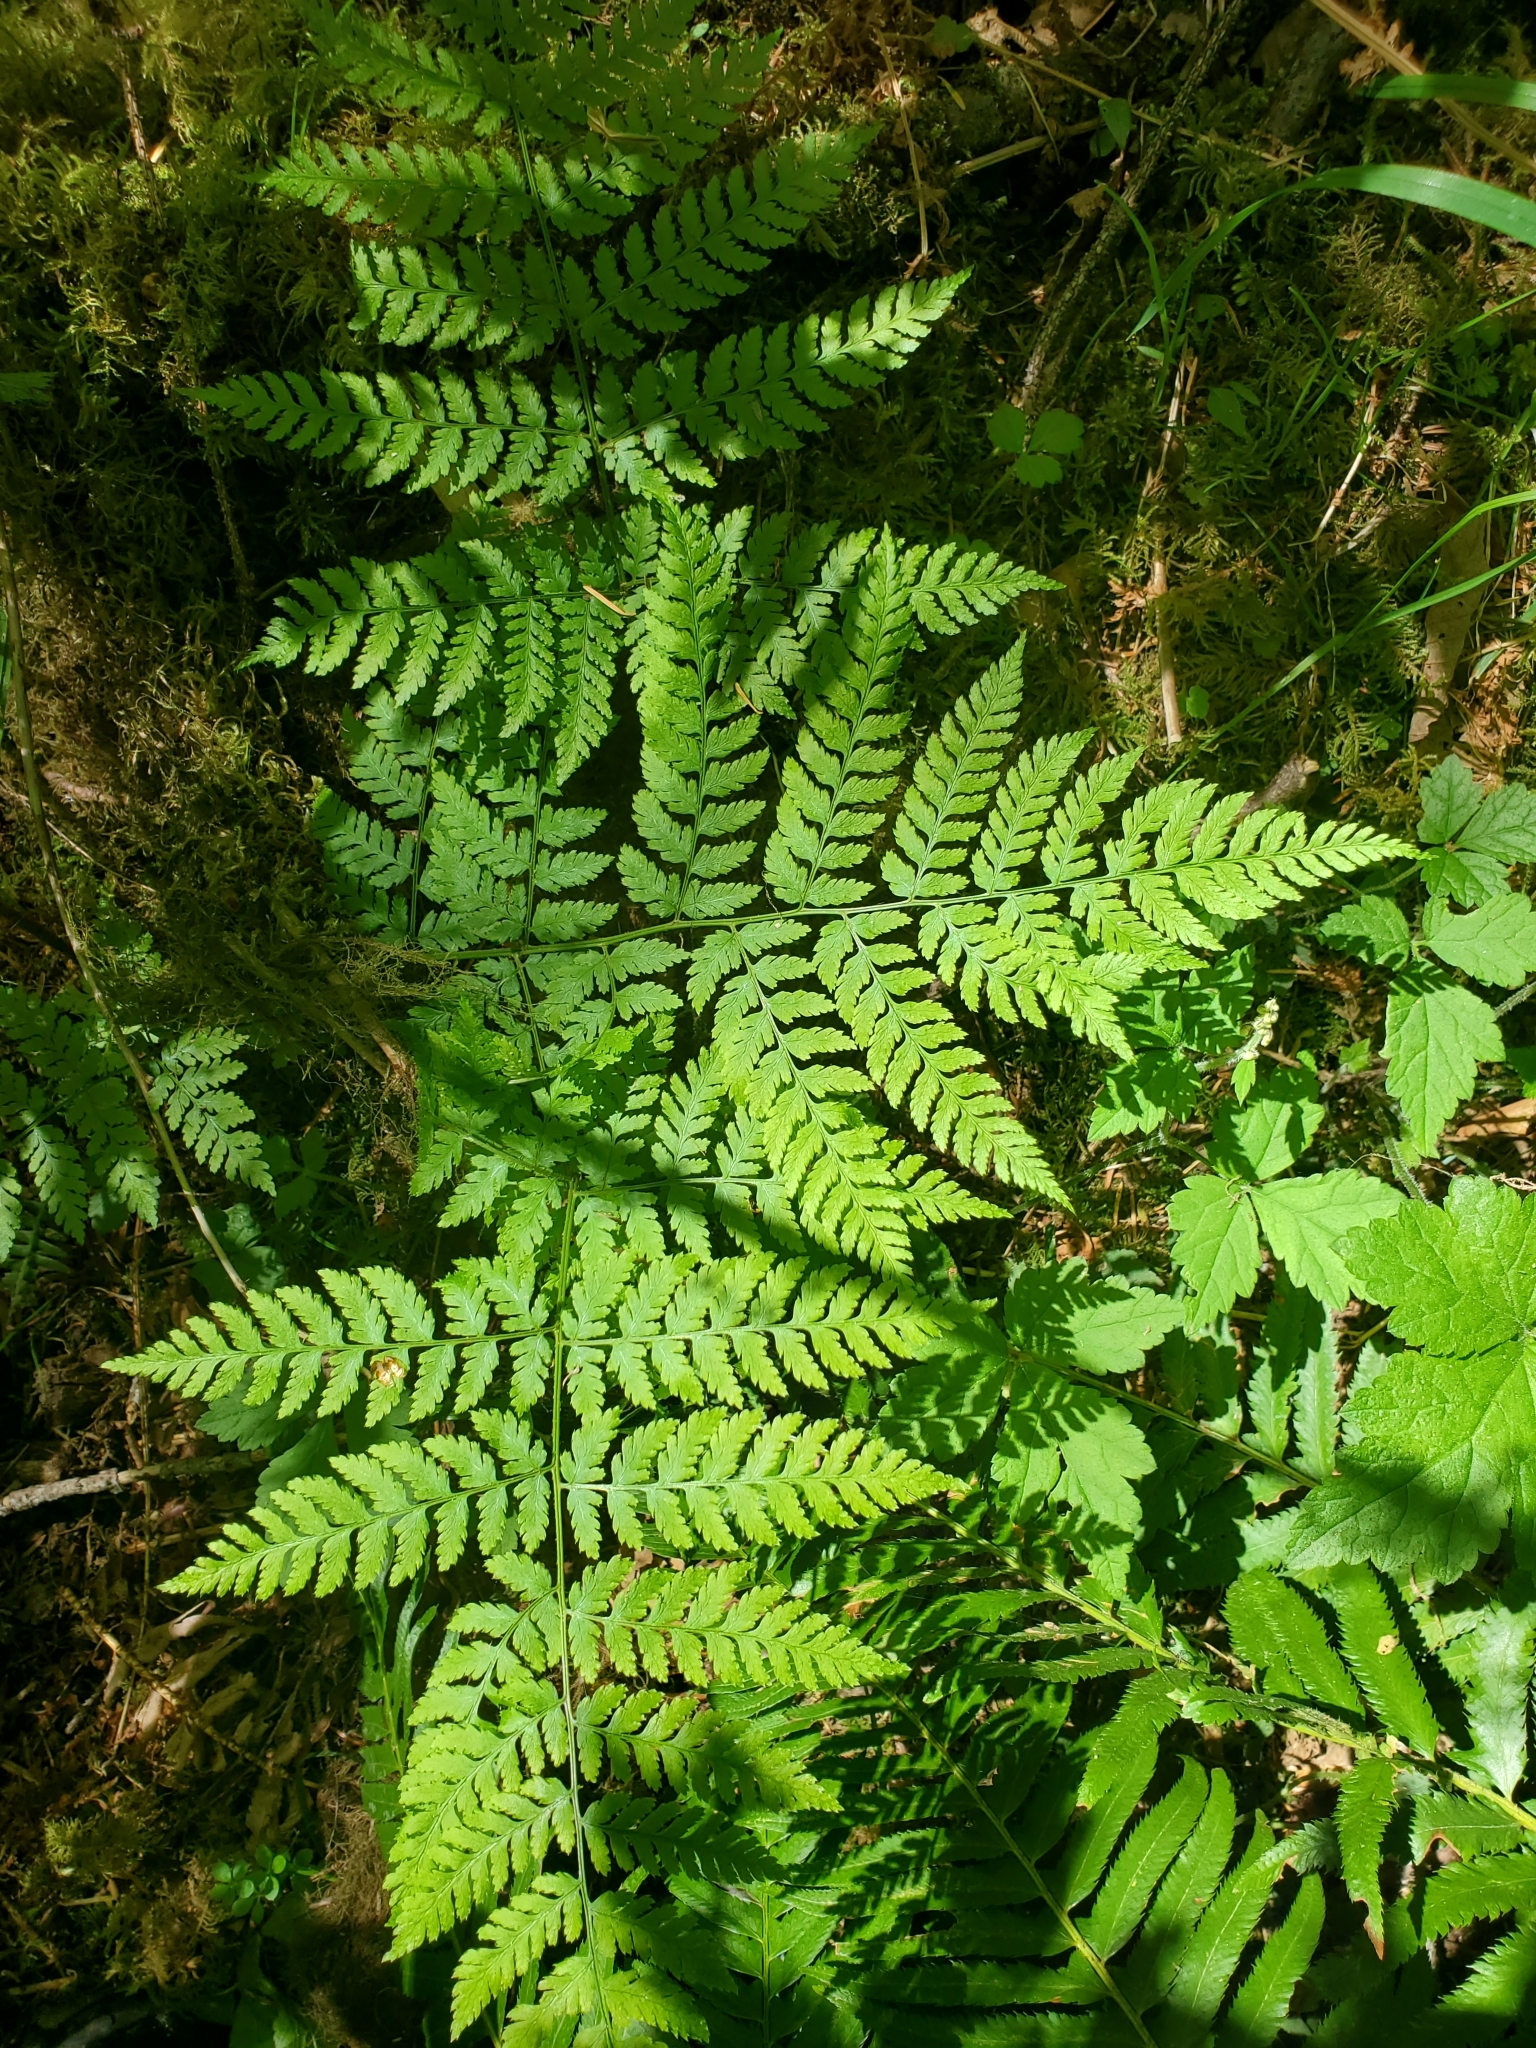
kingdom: Plantae
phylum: Tracheophyta
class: Polypodiopsida
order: Polypodiales
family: Dryopteridaceae
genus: Dryopteris
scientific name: Dryopteris expansa
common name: Northern buckler fern
